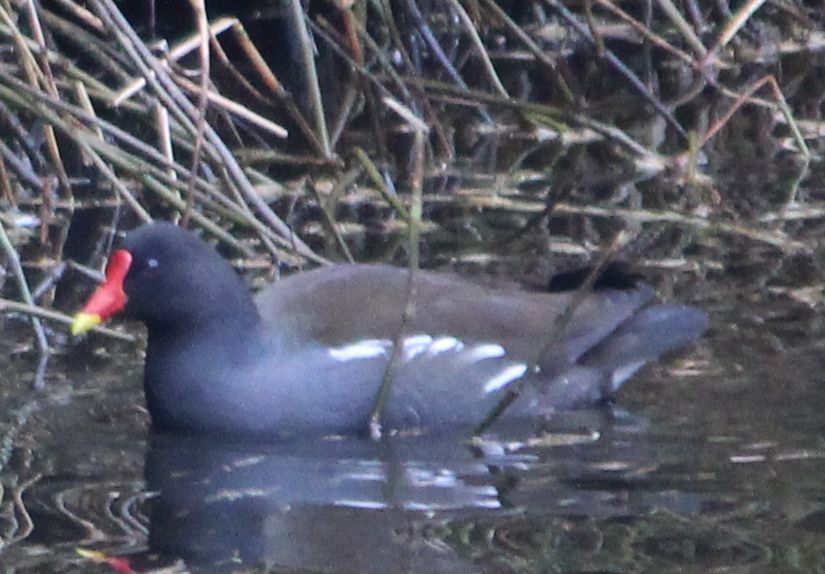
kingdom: Animalia
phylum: Chordata
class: Aves
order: Gruiformes
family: Rallidae
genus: Gallinula
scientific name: Gallinula chloropus
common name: Common moorhen
